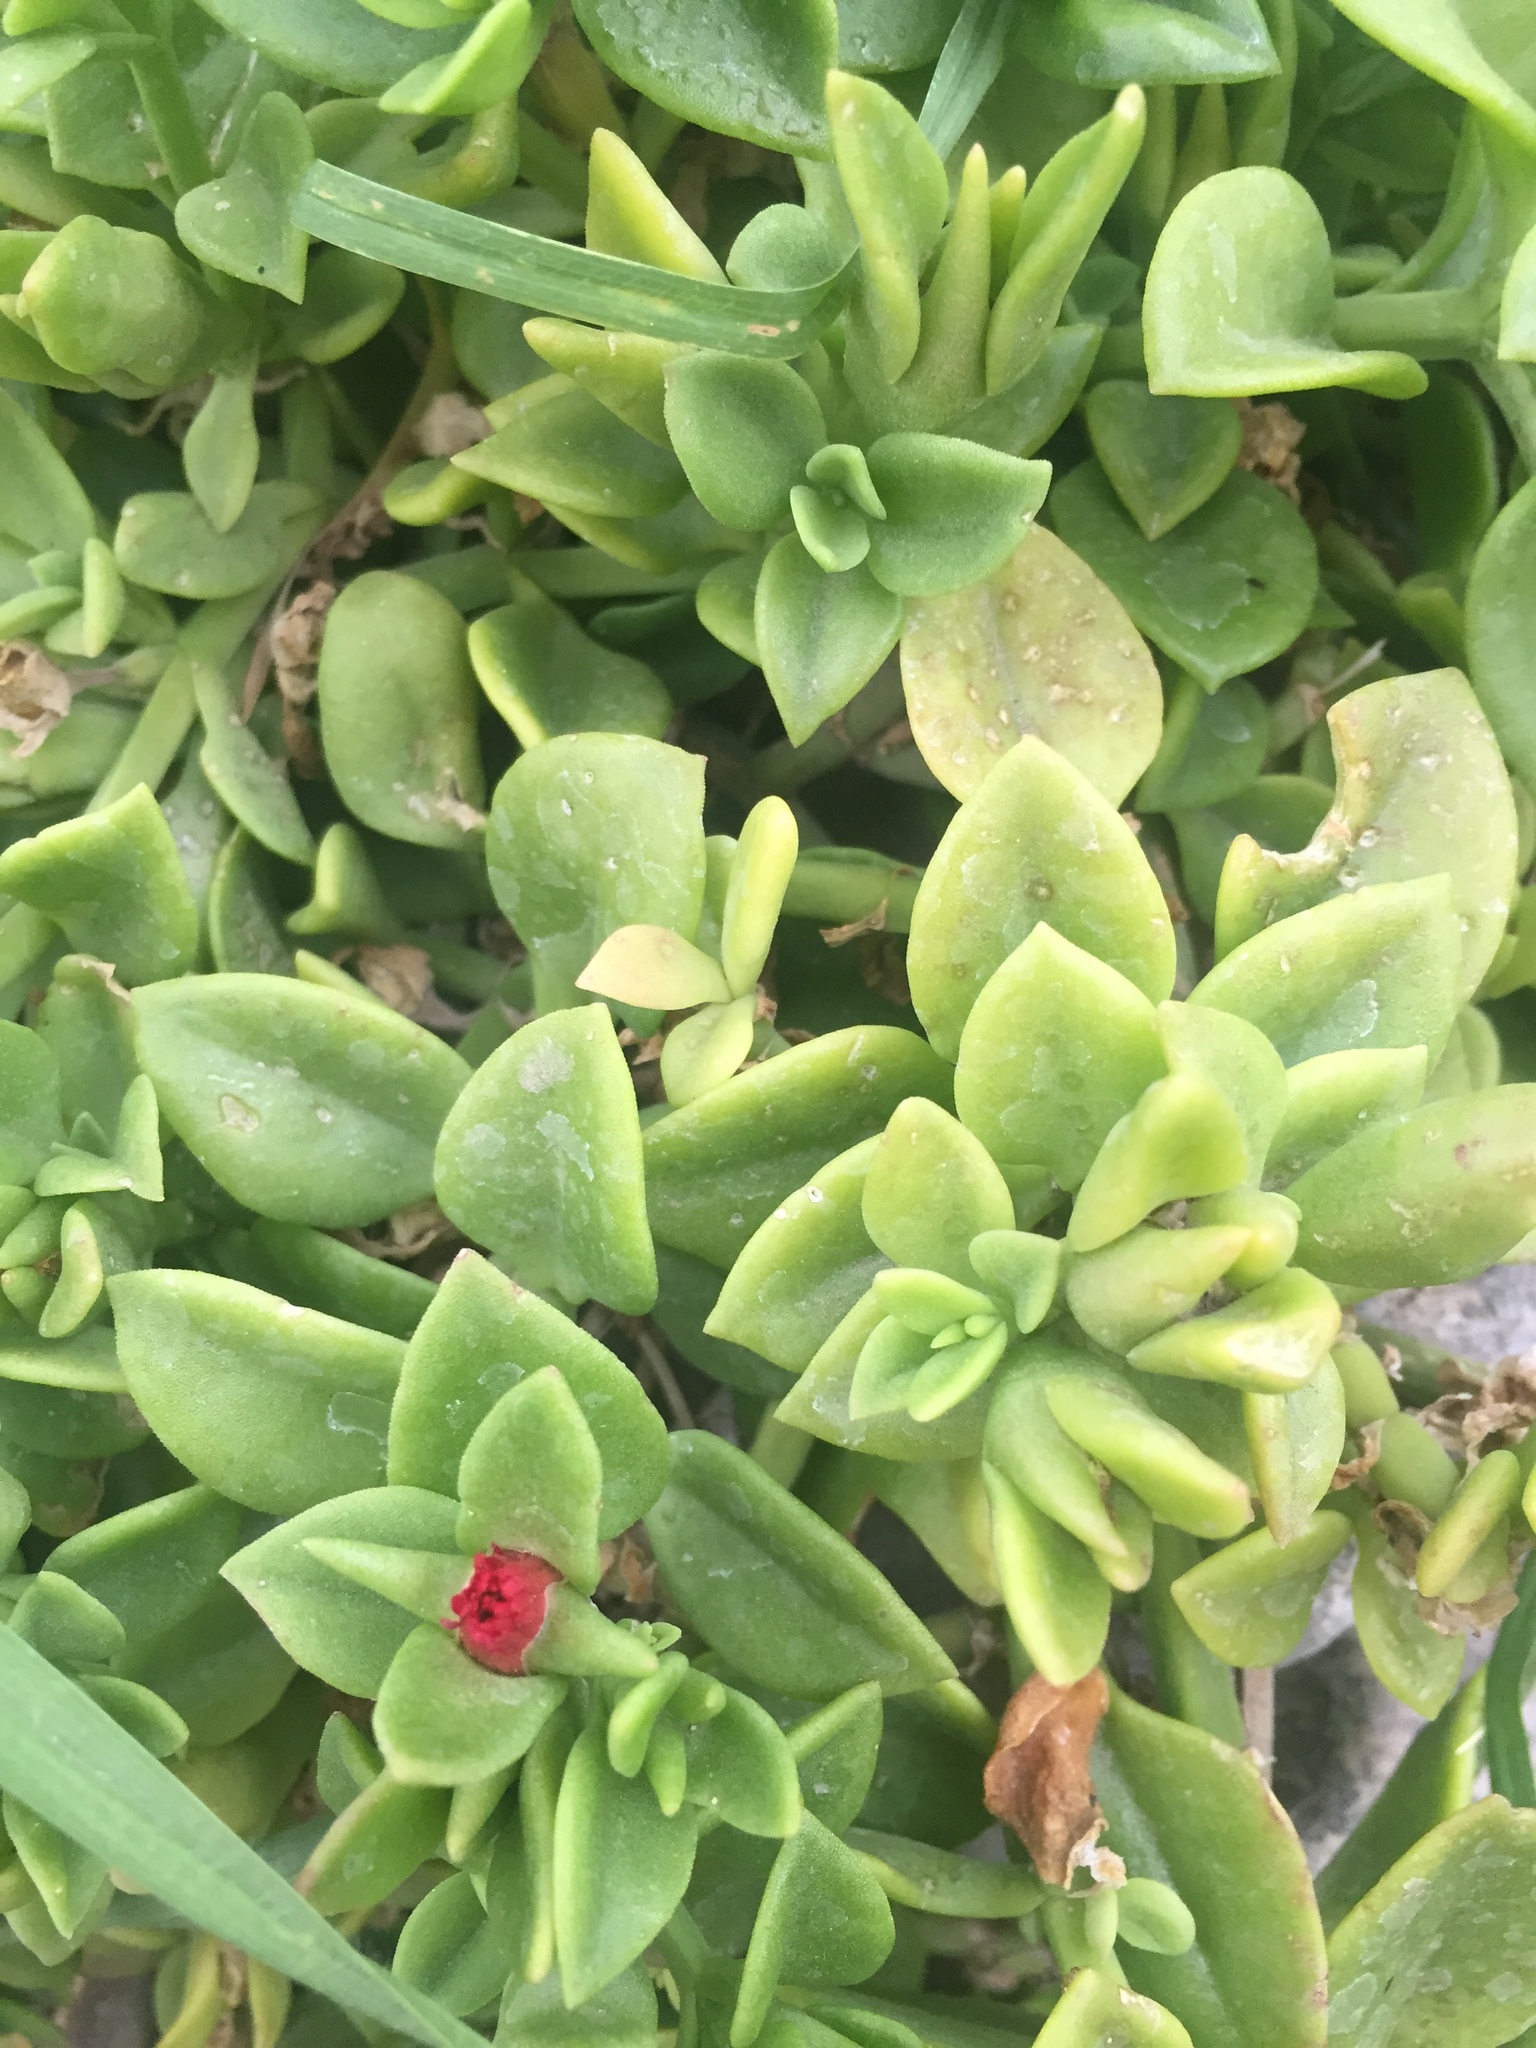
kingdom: Plantae
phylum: Tracheophyta
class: Magnoliopsida
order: Caryophyllales
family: Aizoaceae
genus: Mesembryanthemum
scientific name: Mesembryanthemum cordifolium
